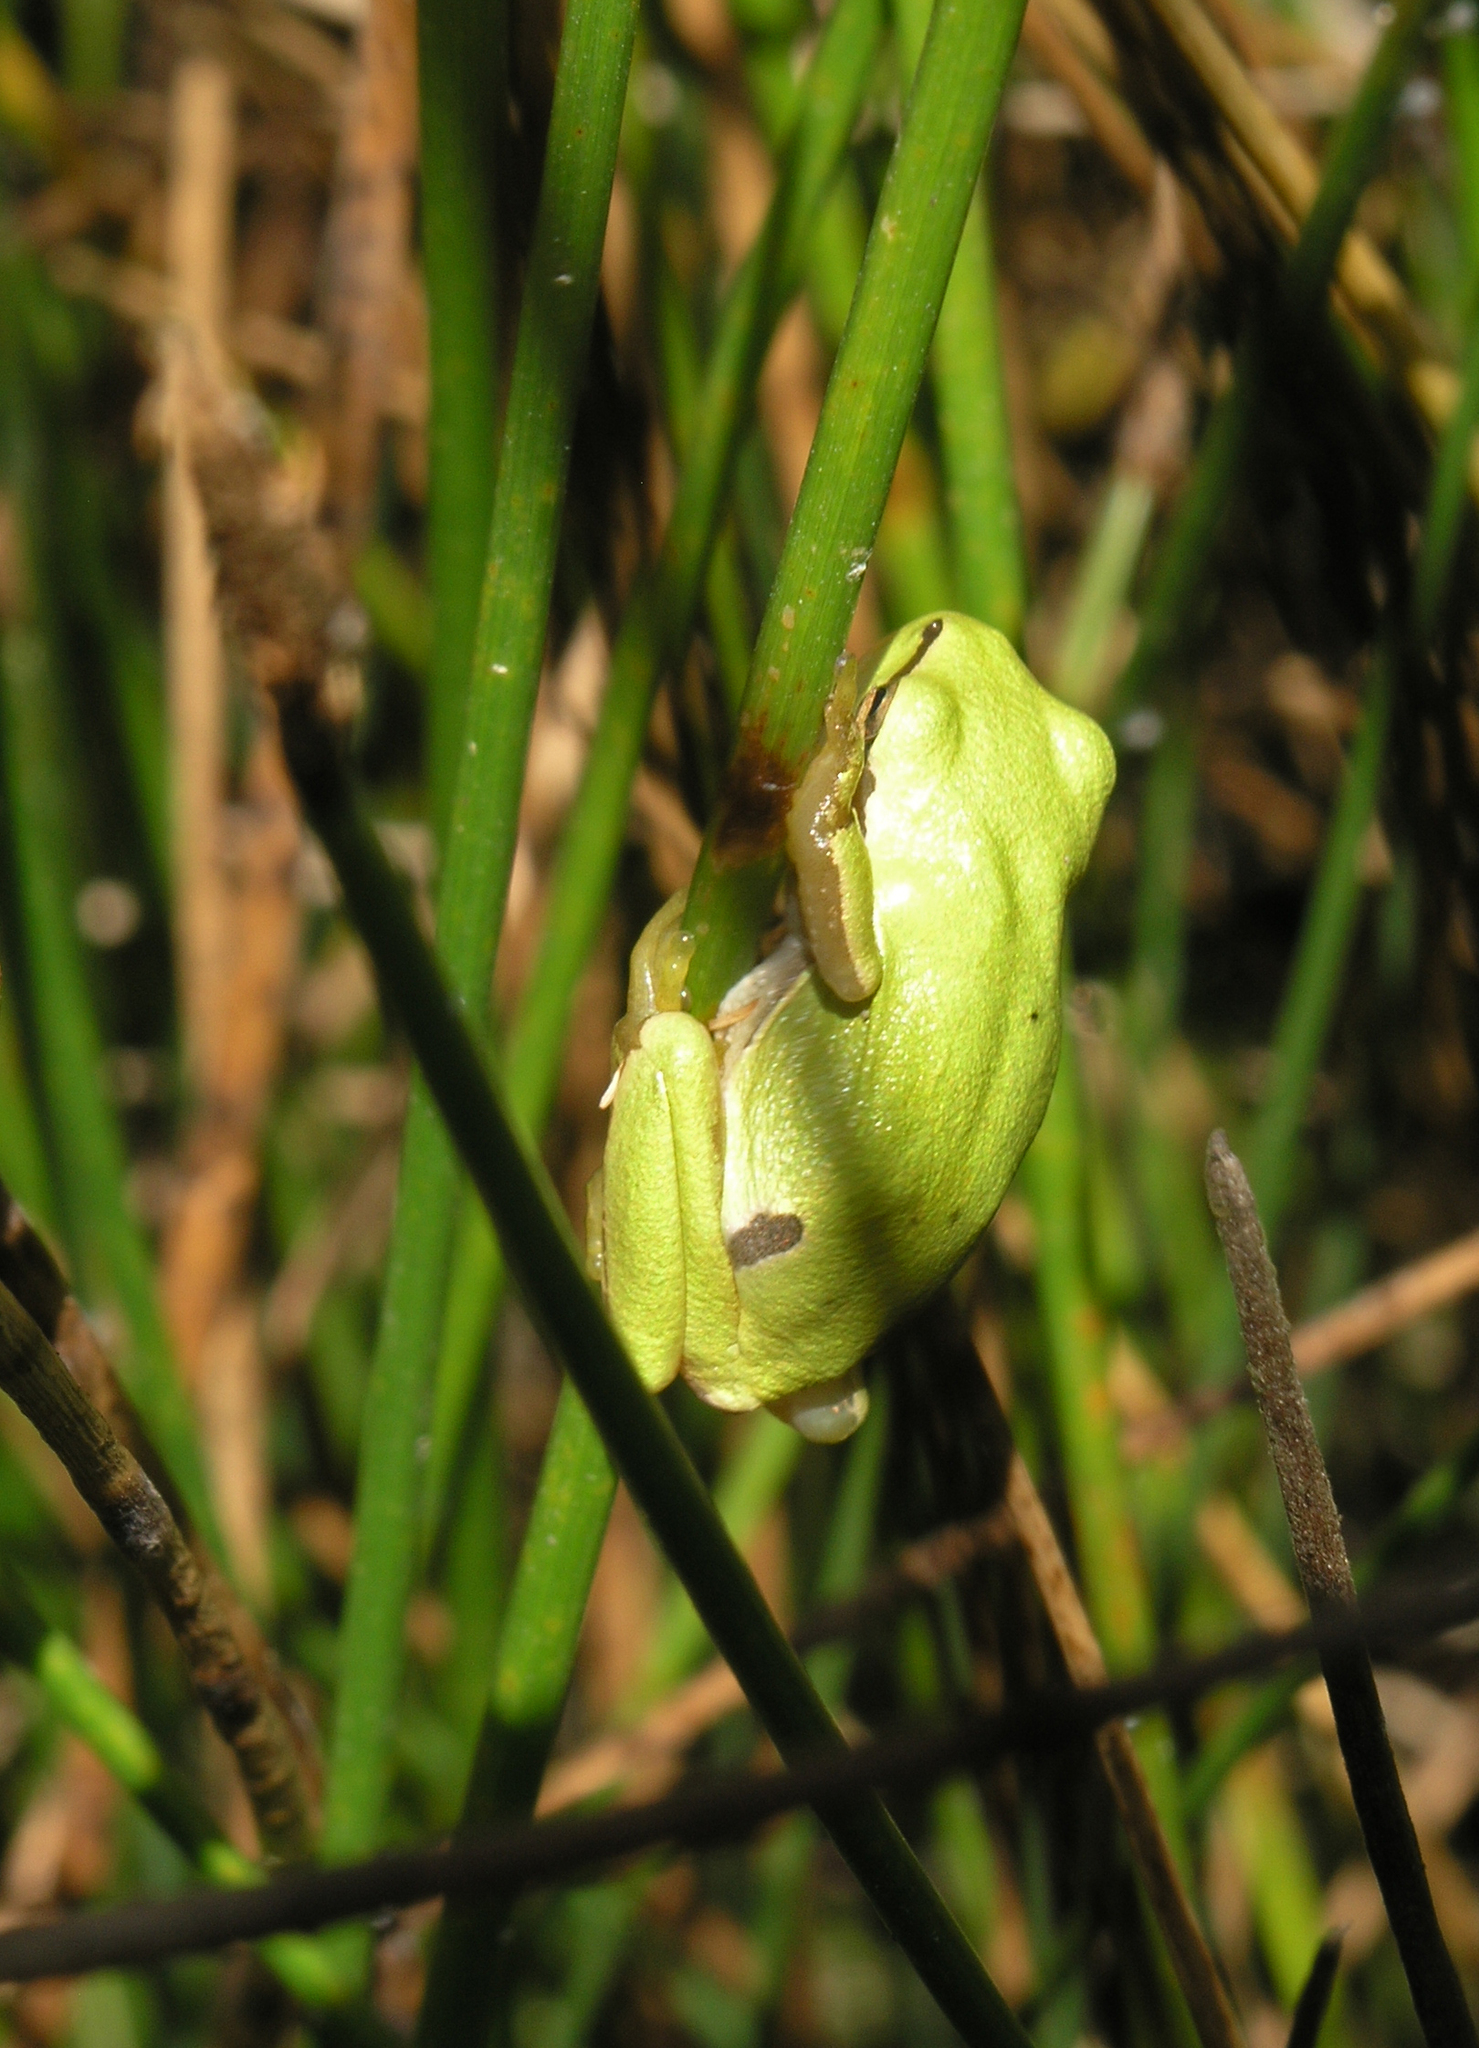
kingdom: Animalia
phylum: Chordata
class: Amphibia
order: Anura
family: Hylidae
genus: Hyla
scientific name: Hyla molleri
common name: Iberian tree frog
